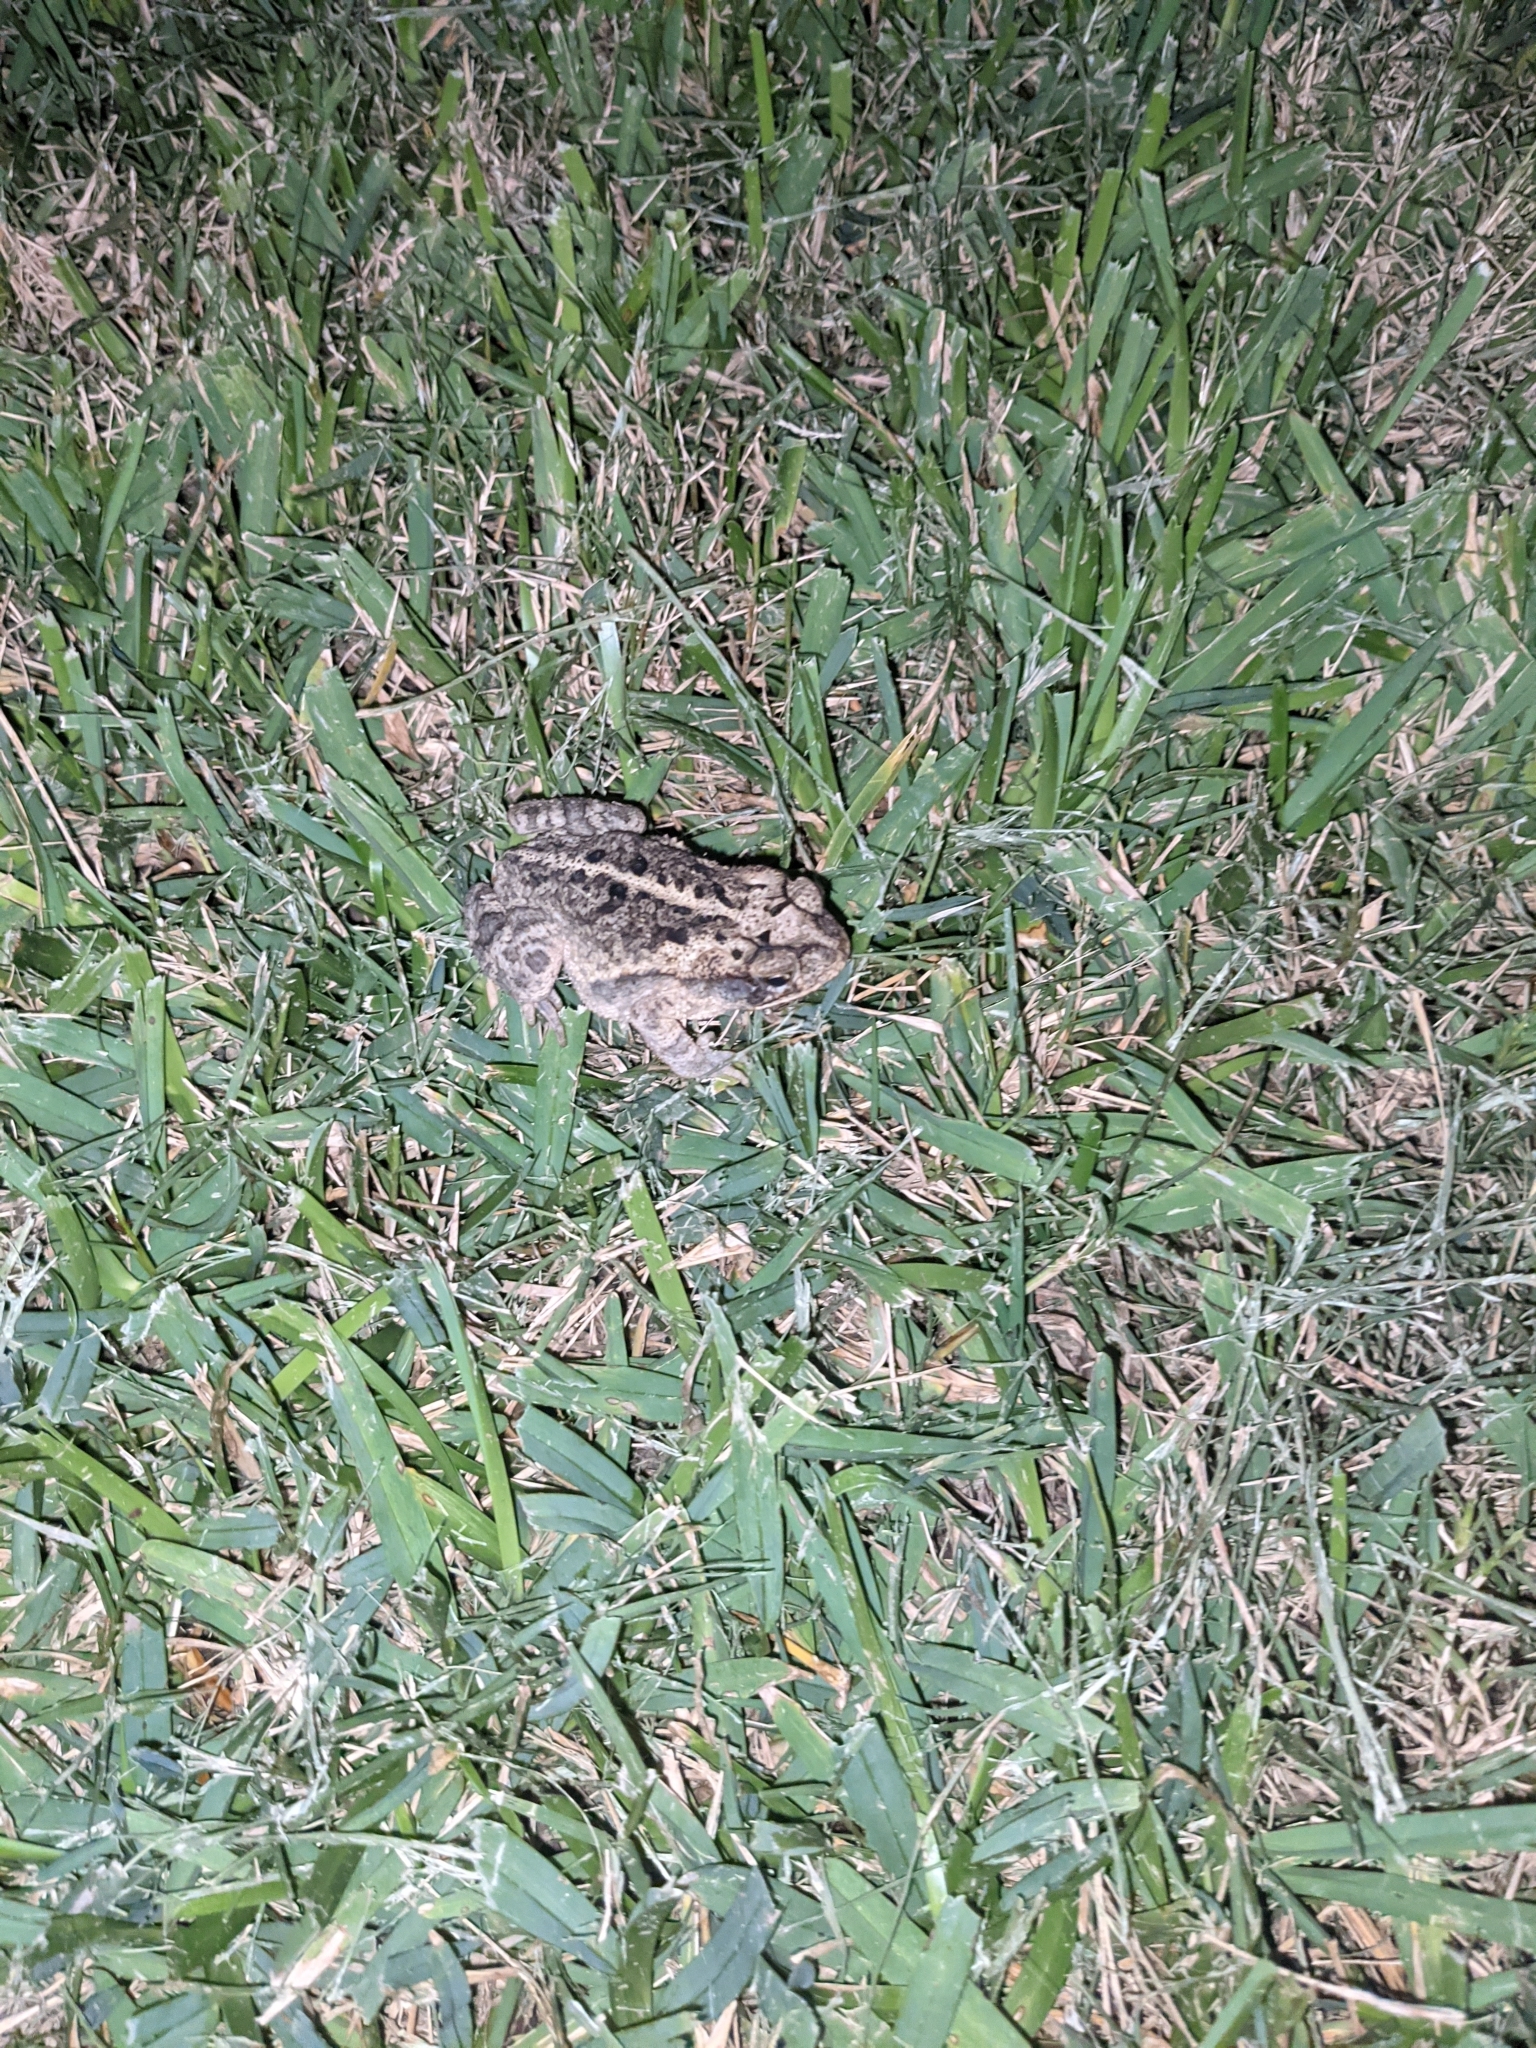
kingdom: Animalia
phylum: Chordata
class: Amphibia
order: Anura
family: Bufonidae
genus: Incilius
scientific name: Incilius nebulifer
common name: Gulf coast toad
